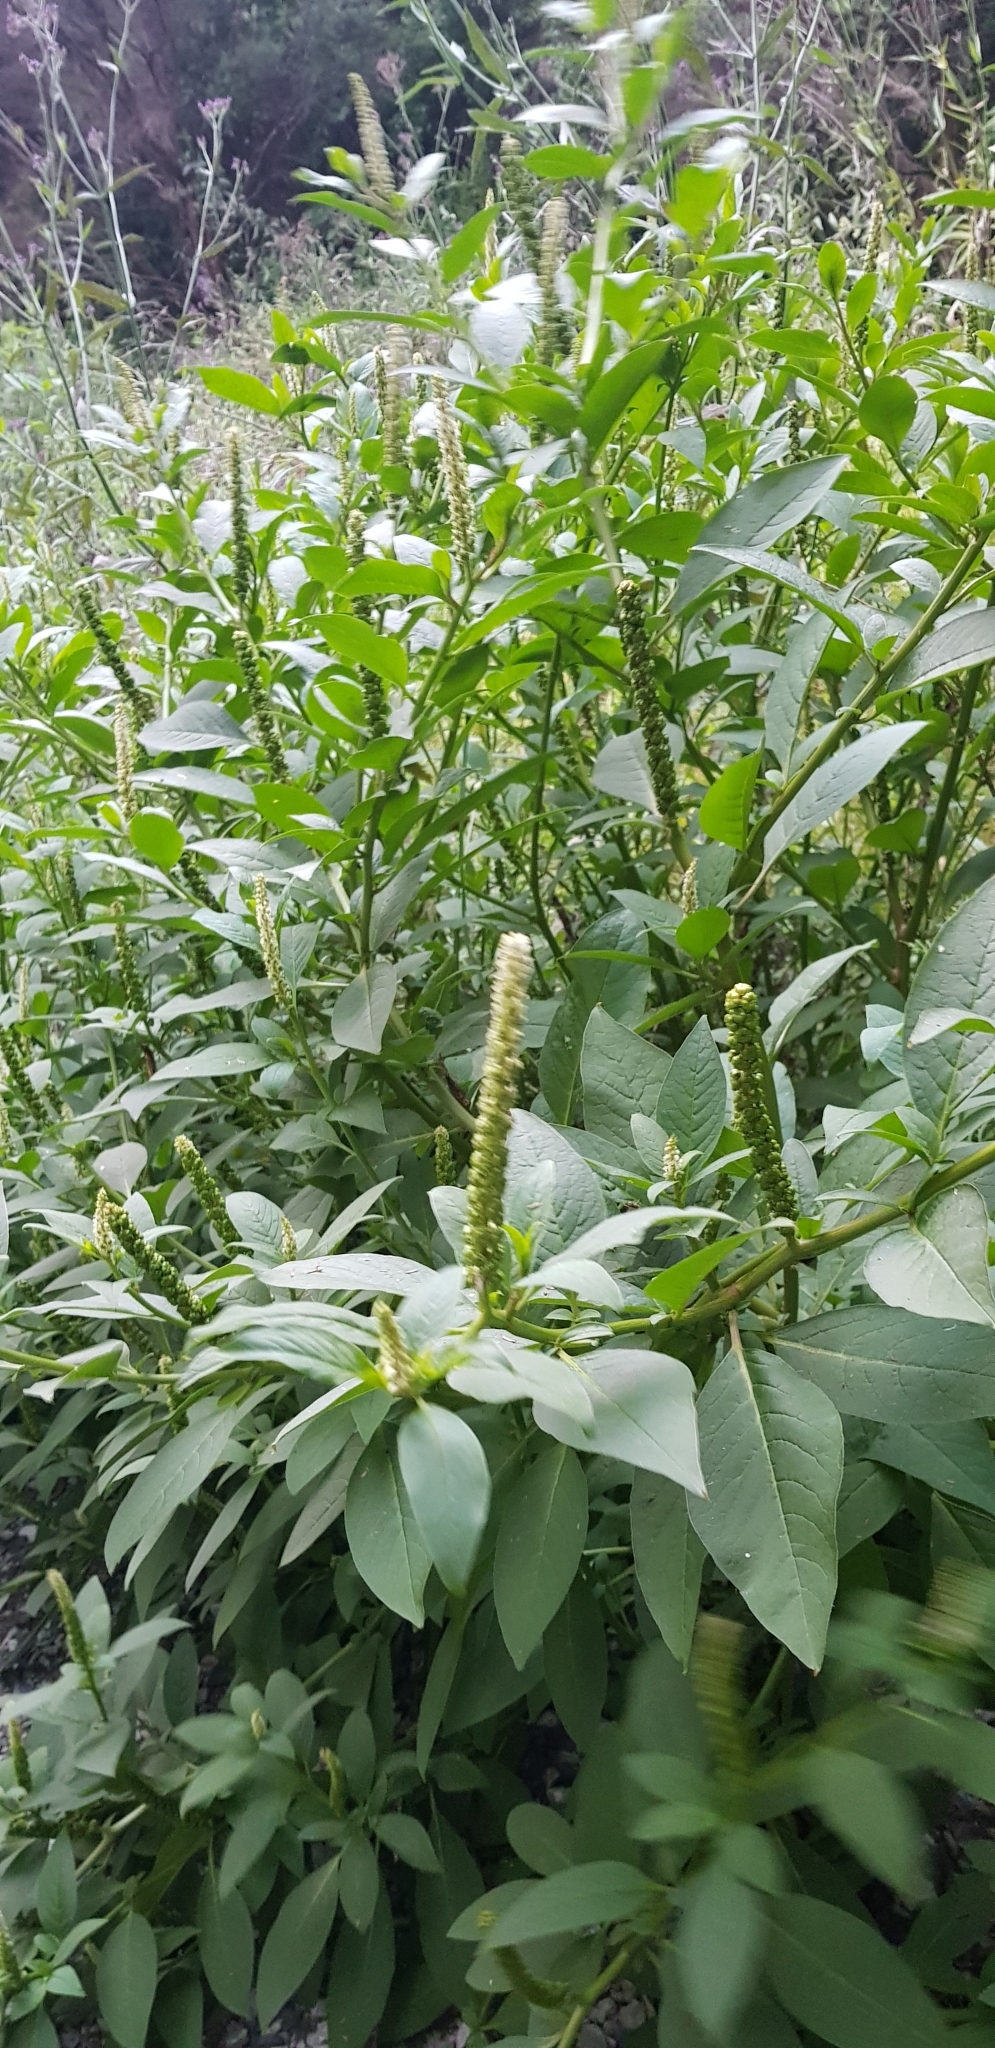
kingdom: Plantae
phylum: Tracheophyta
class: Magnoliopsida
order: Caryophyllales
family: Phytolaccaceae
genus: Phytolacca
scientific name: Phytolacca icosandra
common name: Button pokeweed
